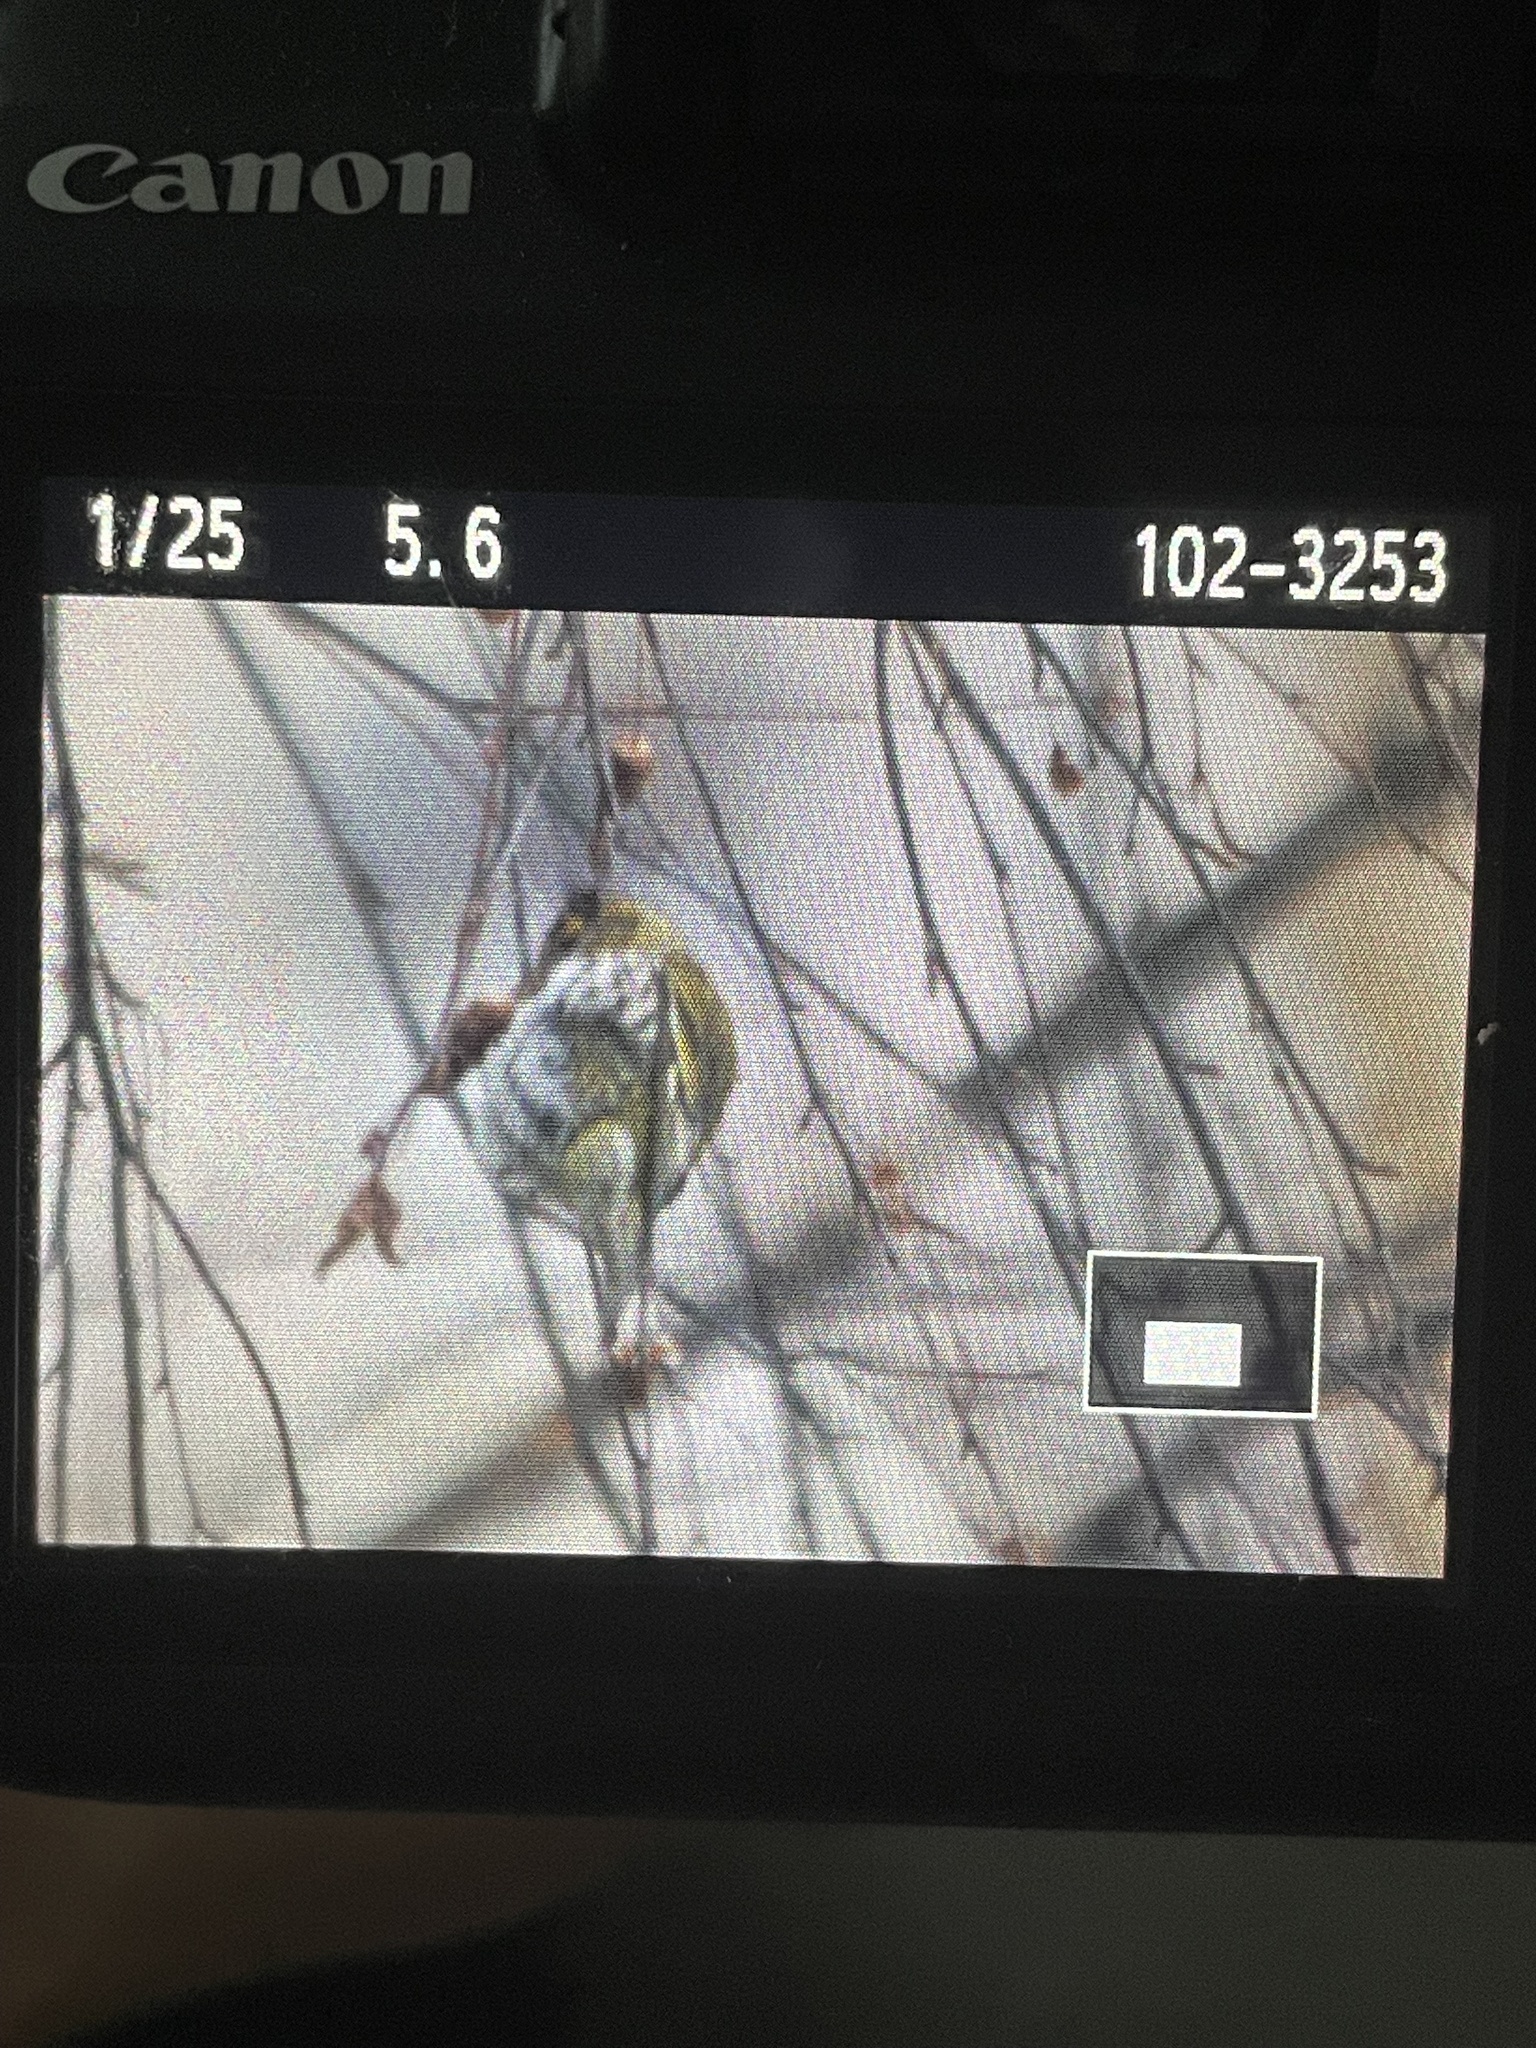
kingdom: Animalia
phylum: Chordata
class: Aves
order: Passeriformes
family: Fringillidae
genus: Spinus
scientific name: Spinus spinus
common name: Eurasian siskin
